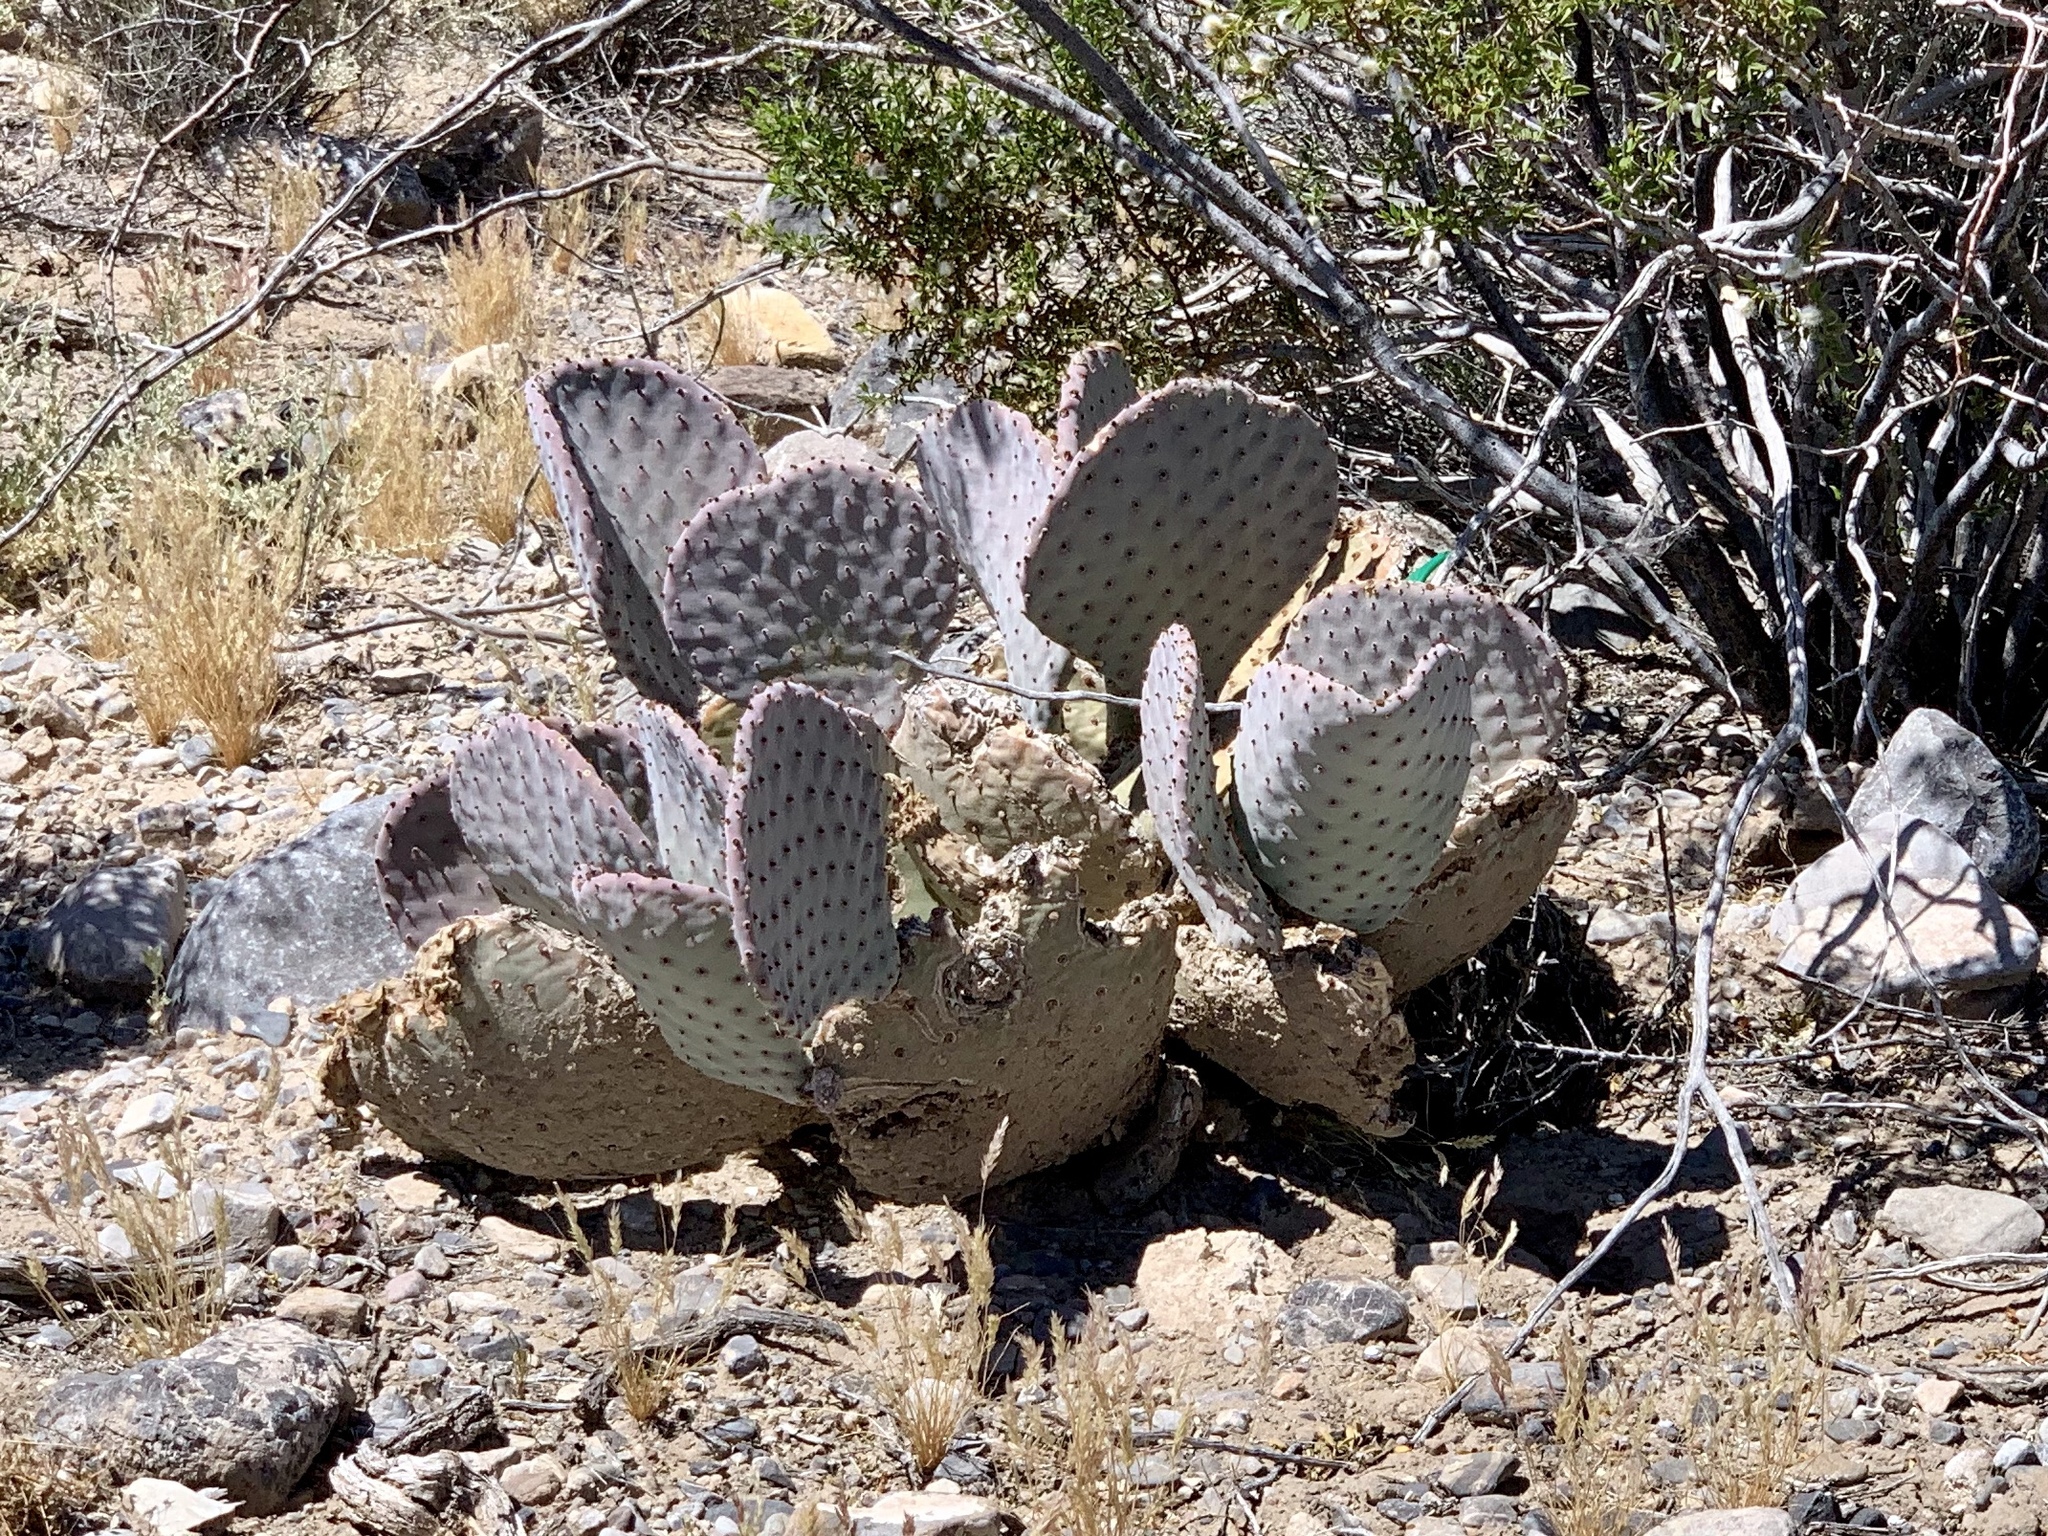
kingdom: Plantae
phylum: Tracheophyta
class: Magnoliopsida
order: Caryophyllales
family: Cactaceae
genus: Opuntia
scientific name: Opuntia basilaris
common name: Beavertail prickly-pear
